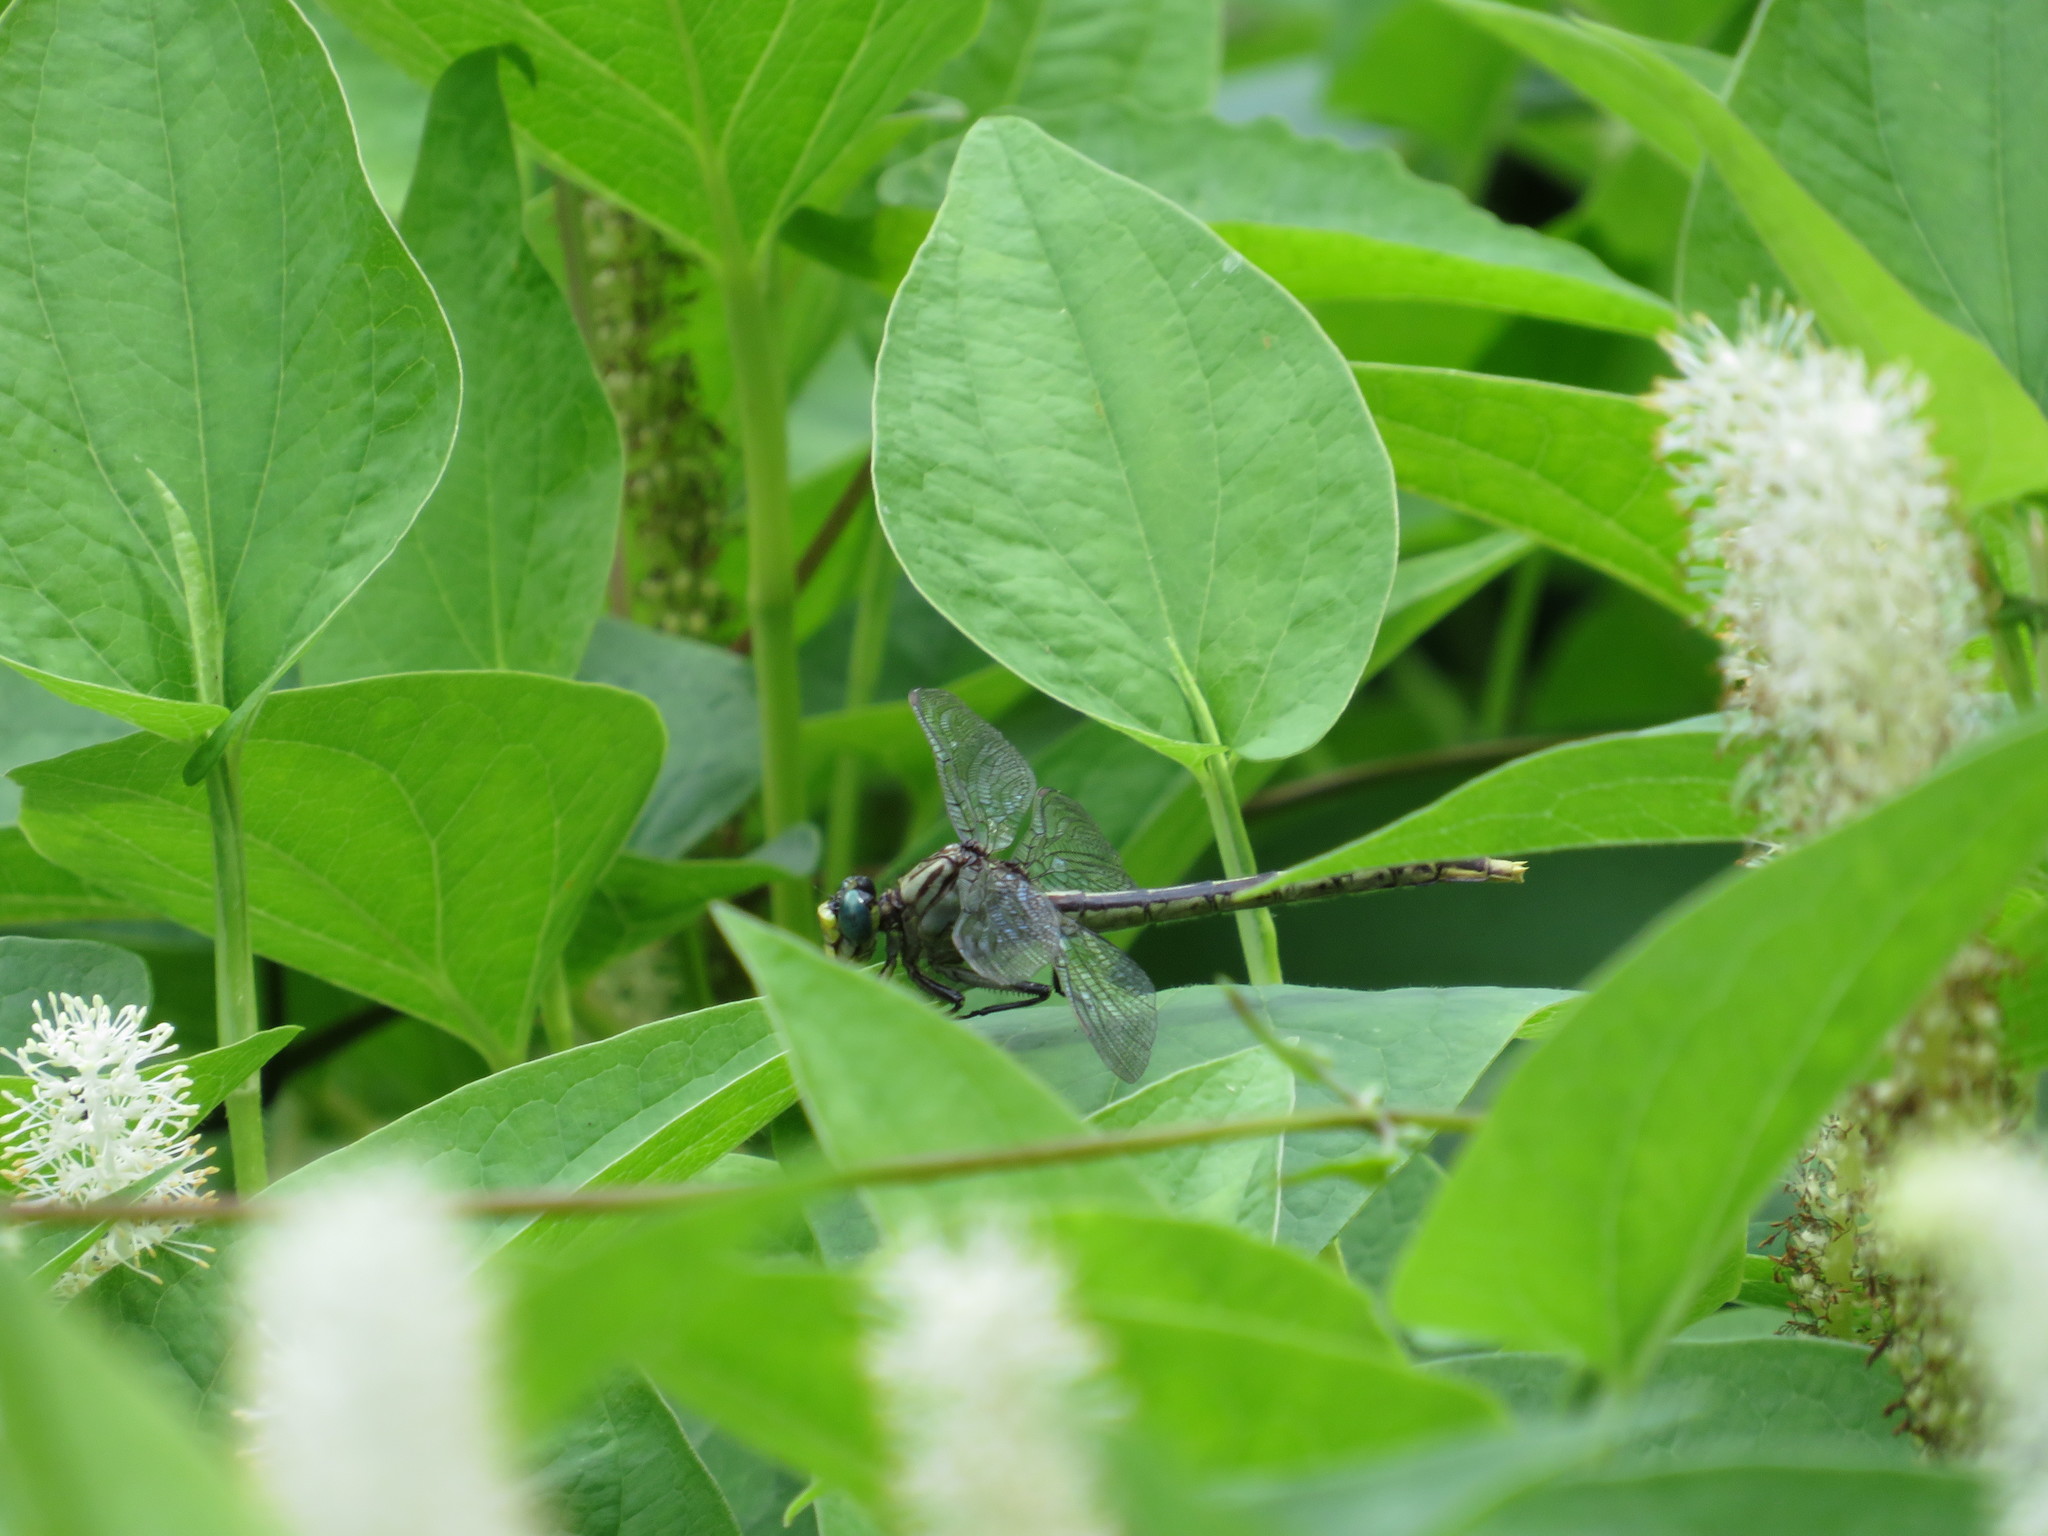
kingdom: Animalia
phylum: Arthropoda
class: Insecta
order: Odonata
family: Gomphidae
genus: Arigomphus
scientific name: Arigomphus villosipes
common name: Unicorn clubtail
